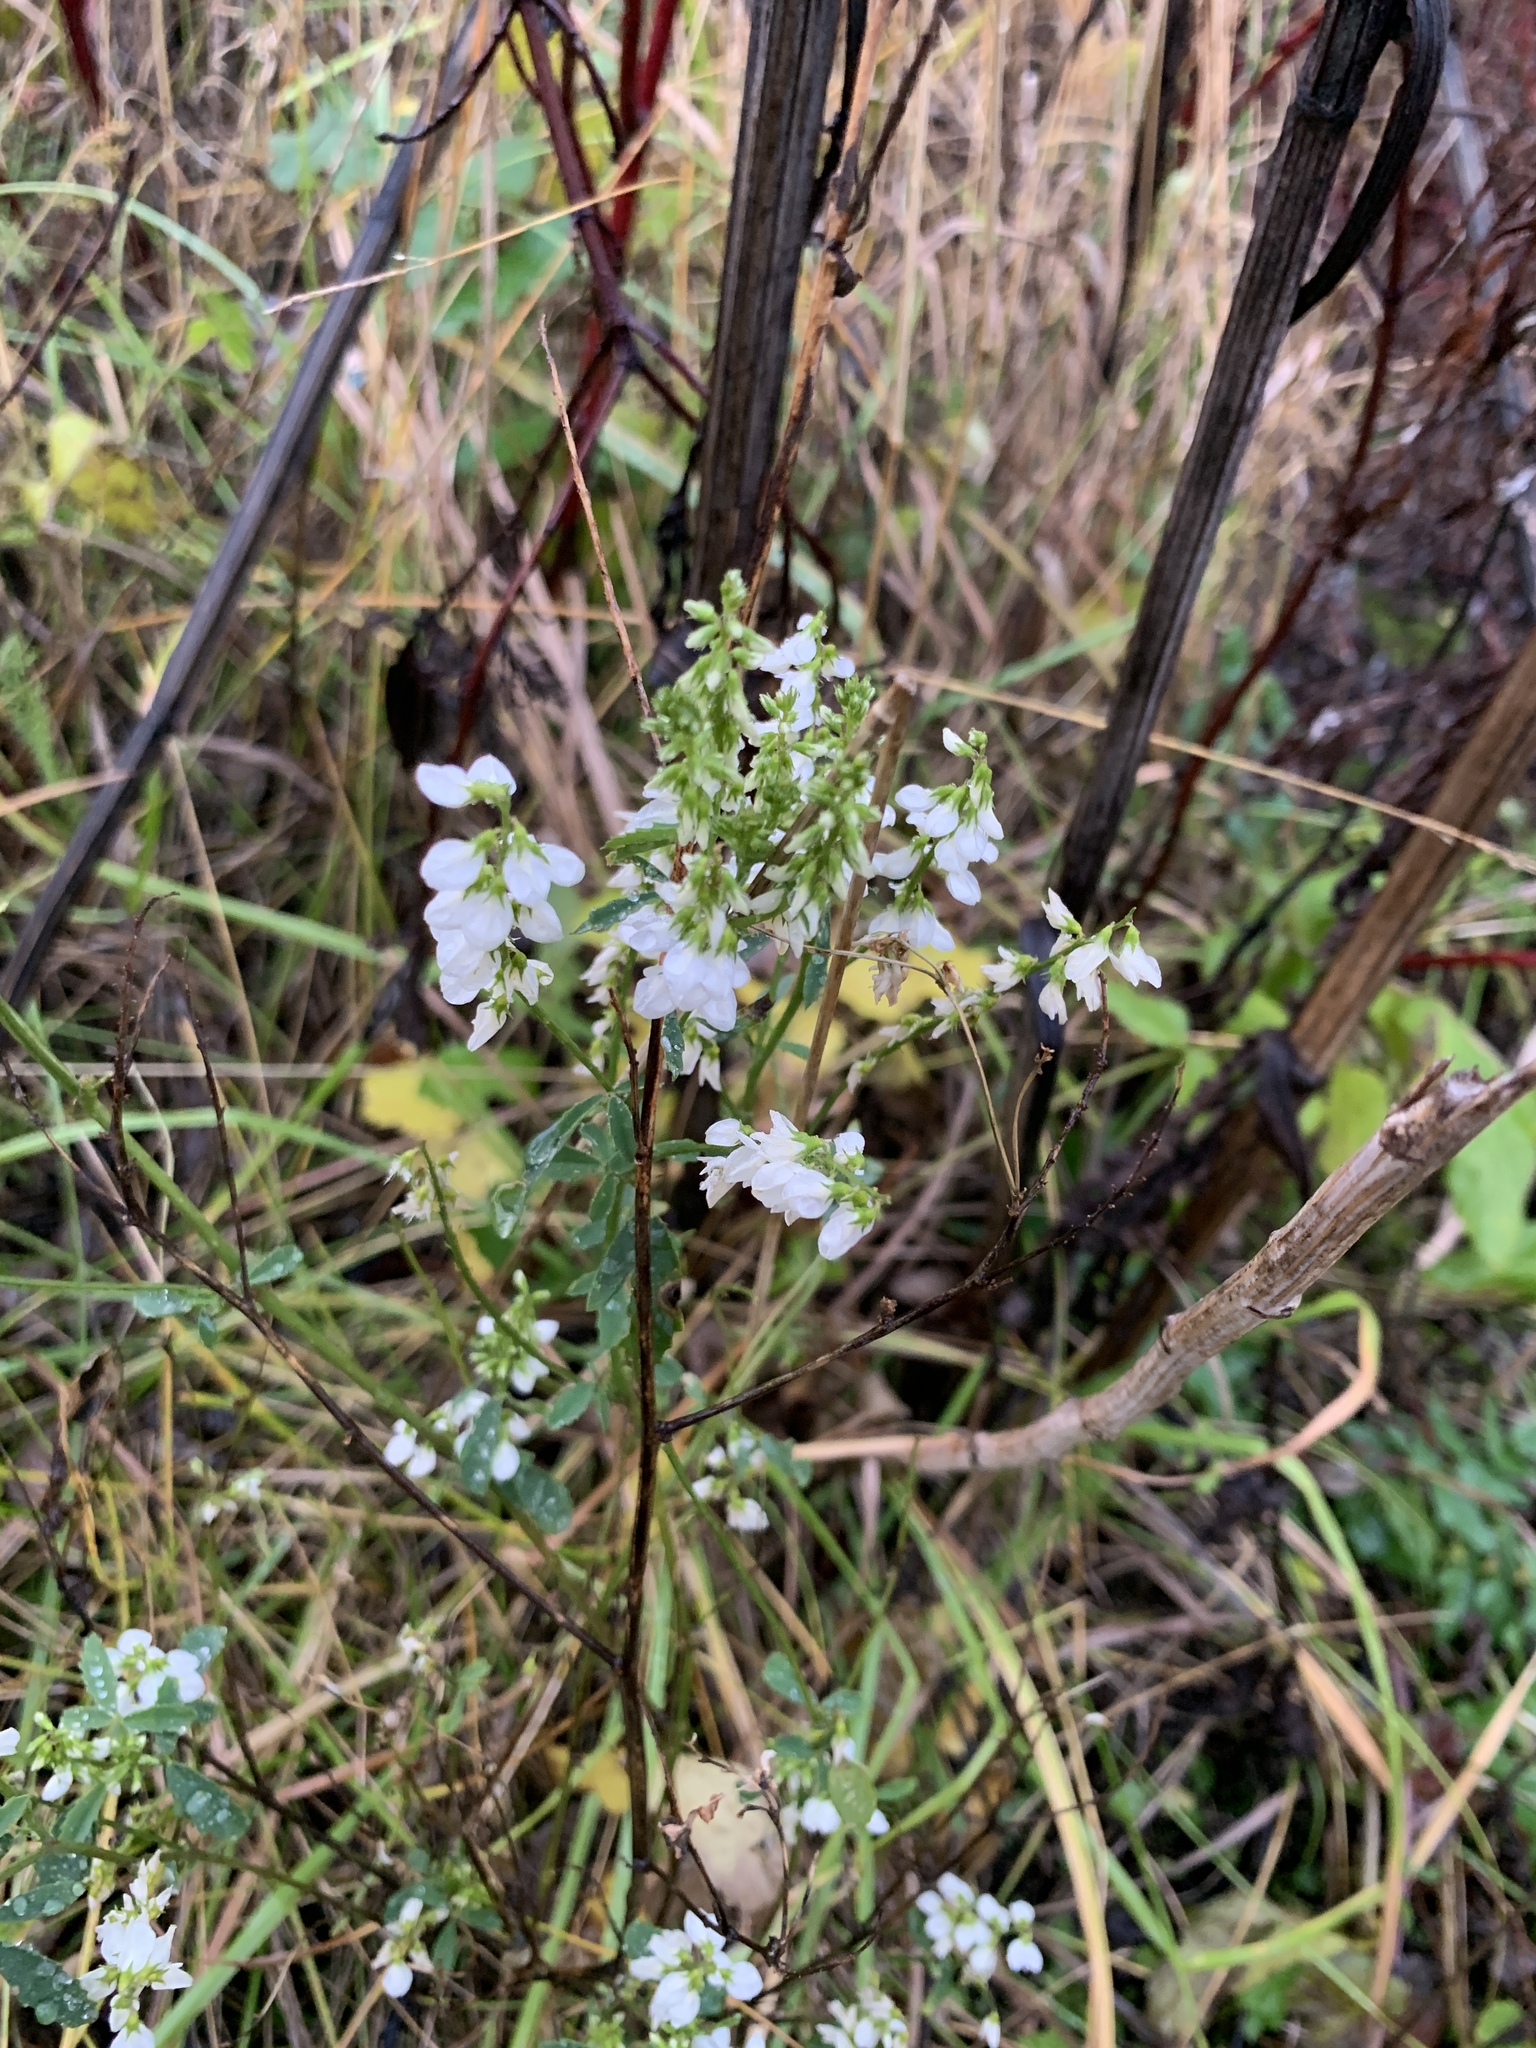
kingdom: Plantae
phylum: Tracheophyta
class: Magnoliopsida
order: Fabales
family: Fabaceae
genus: Melilotus
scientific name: Melilotus albus
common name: White melilot
